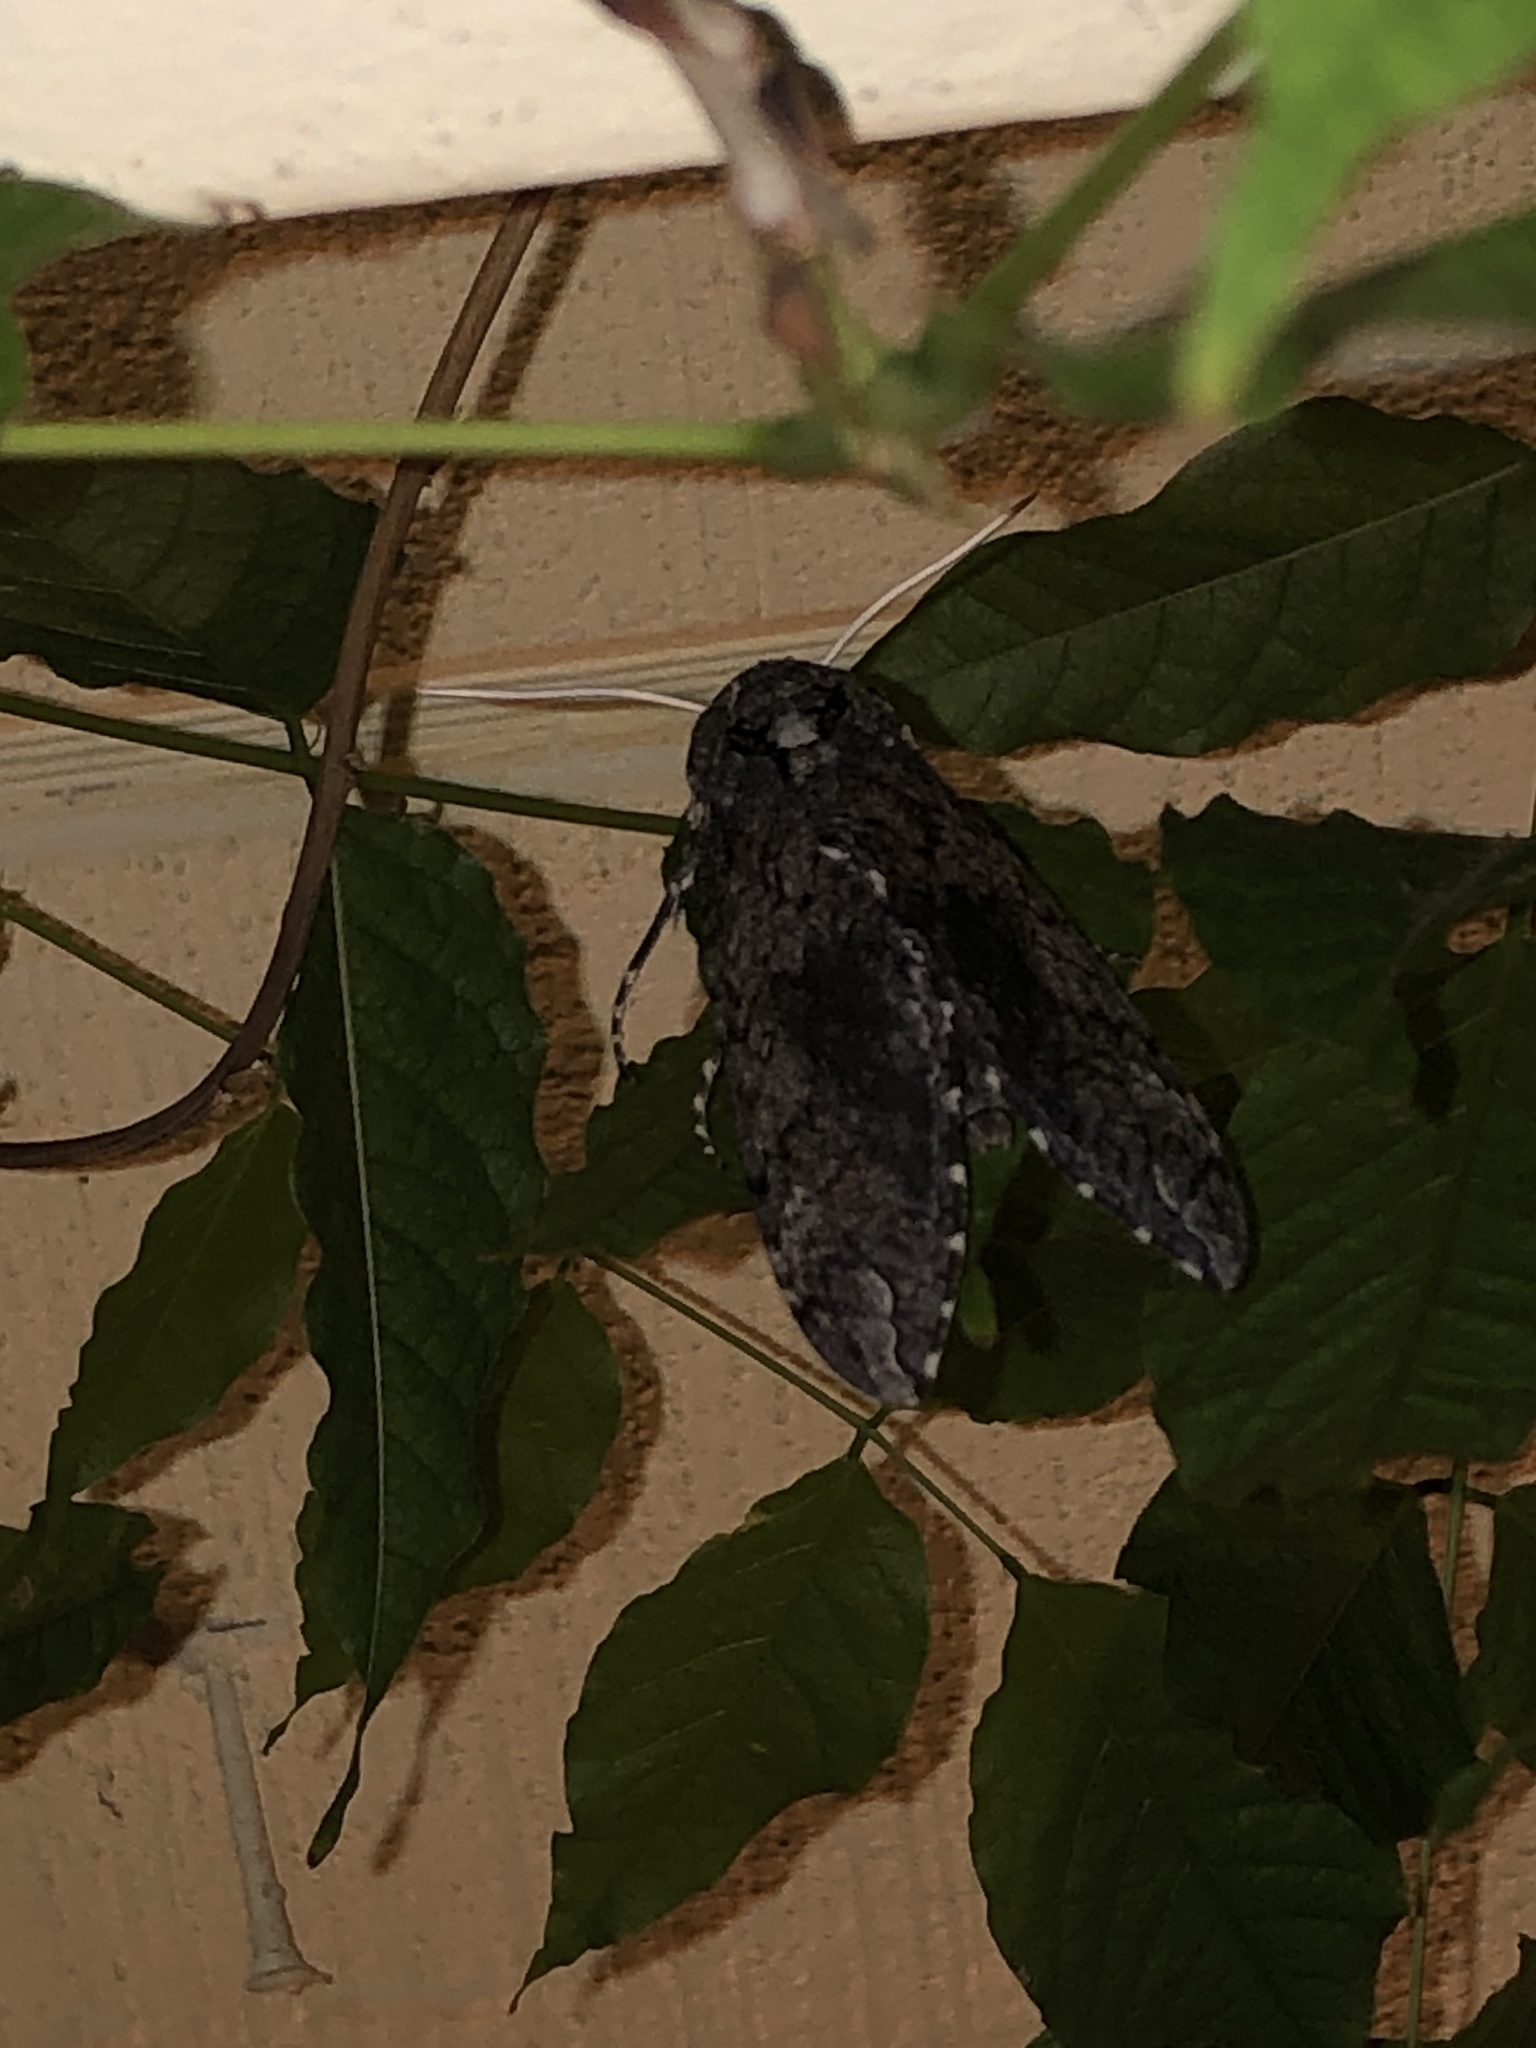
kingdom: Animalia
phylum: Arthropoda
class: Insecta
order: Lepidoptera
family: Sphingidae
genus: Manduca
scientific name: Manduca sexta
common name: Carolina sphinx
